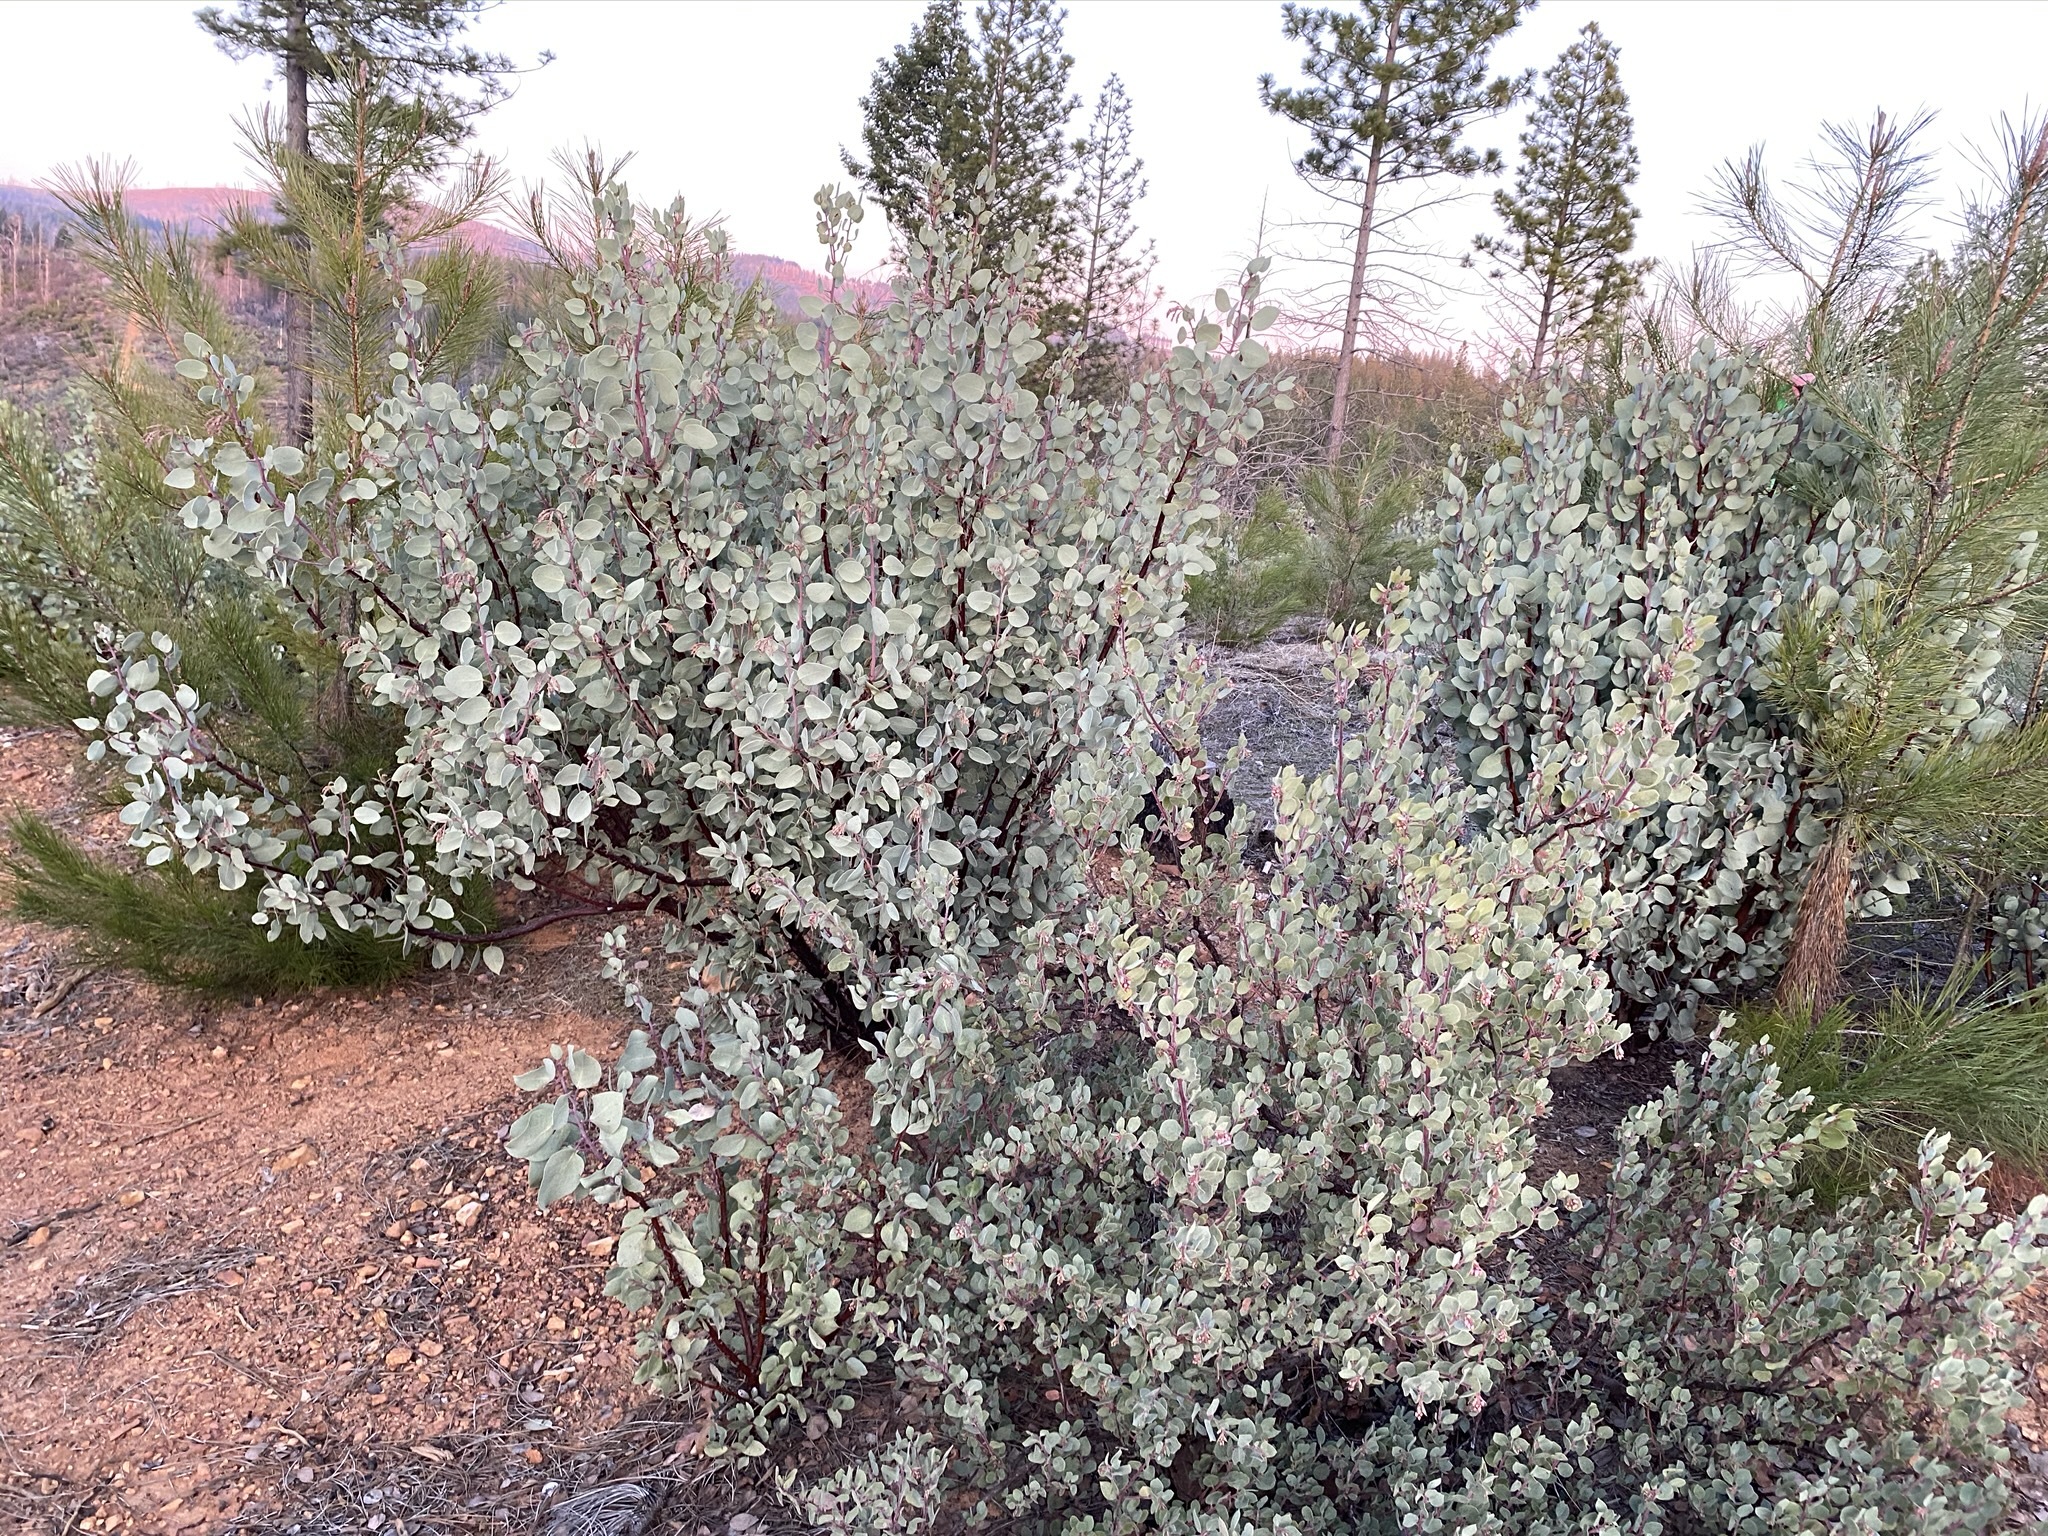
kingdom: Plantae
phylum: Tracheophyta
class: Magnoliopsida
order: Ericales
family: Ericaceae
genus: Arctostaphylos
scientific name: Arctostaphylos nissenana
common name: Nissenan manzanita
